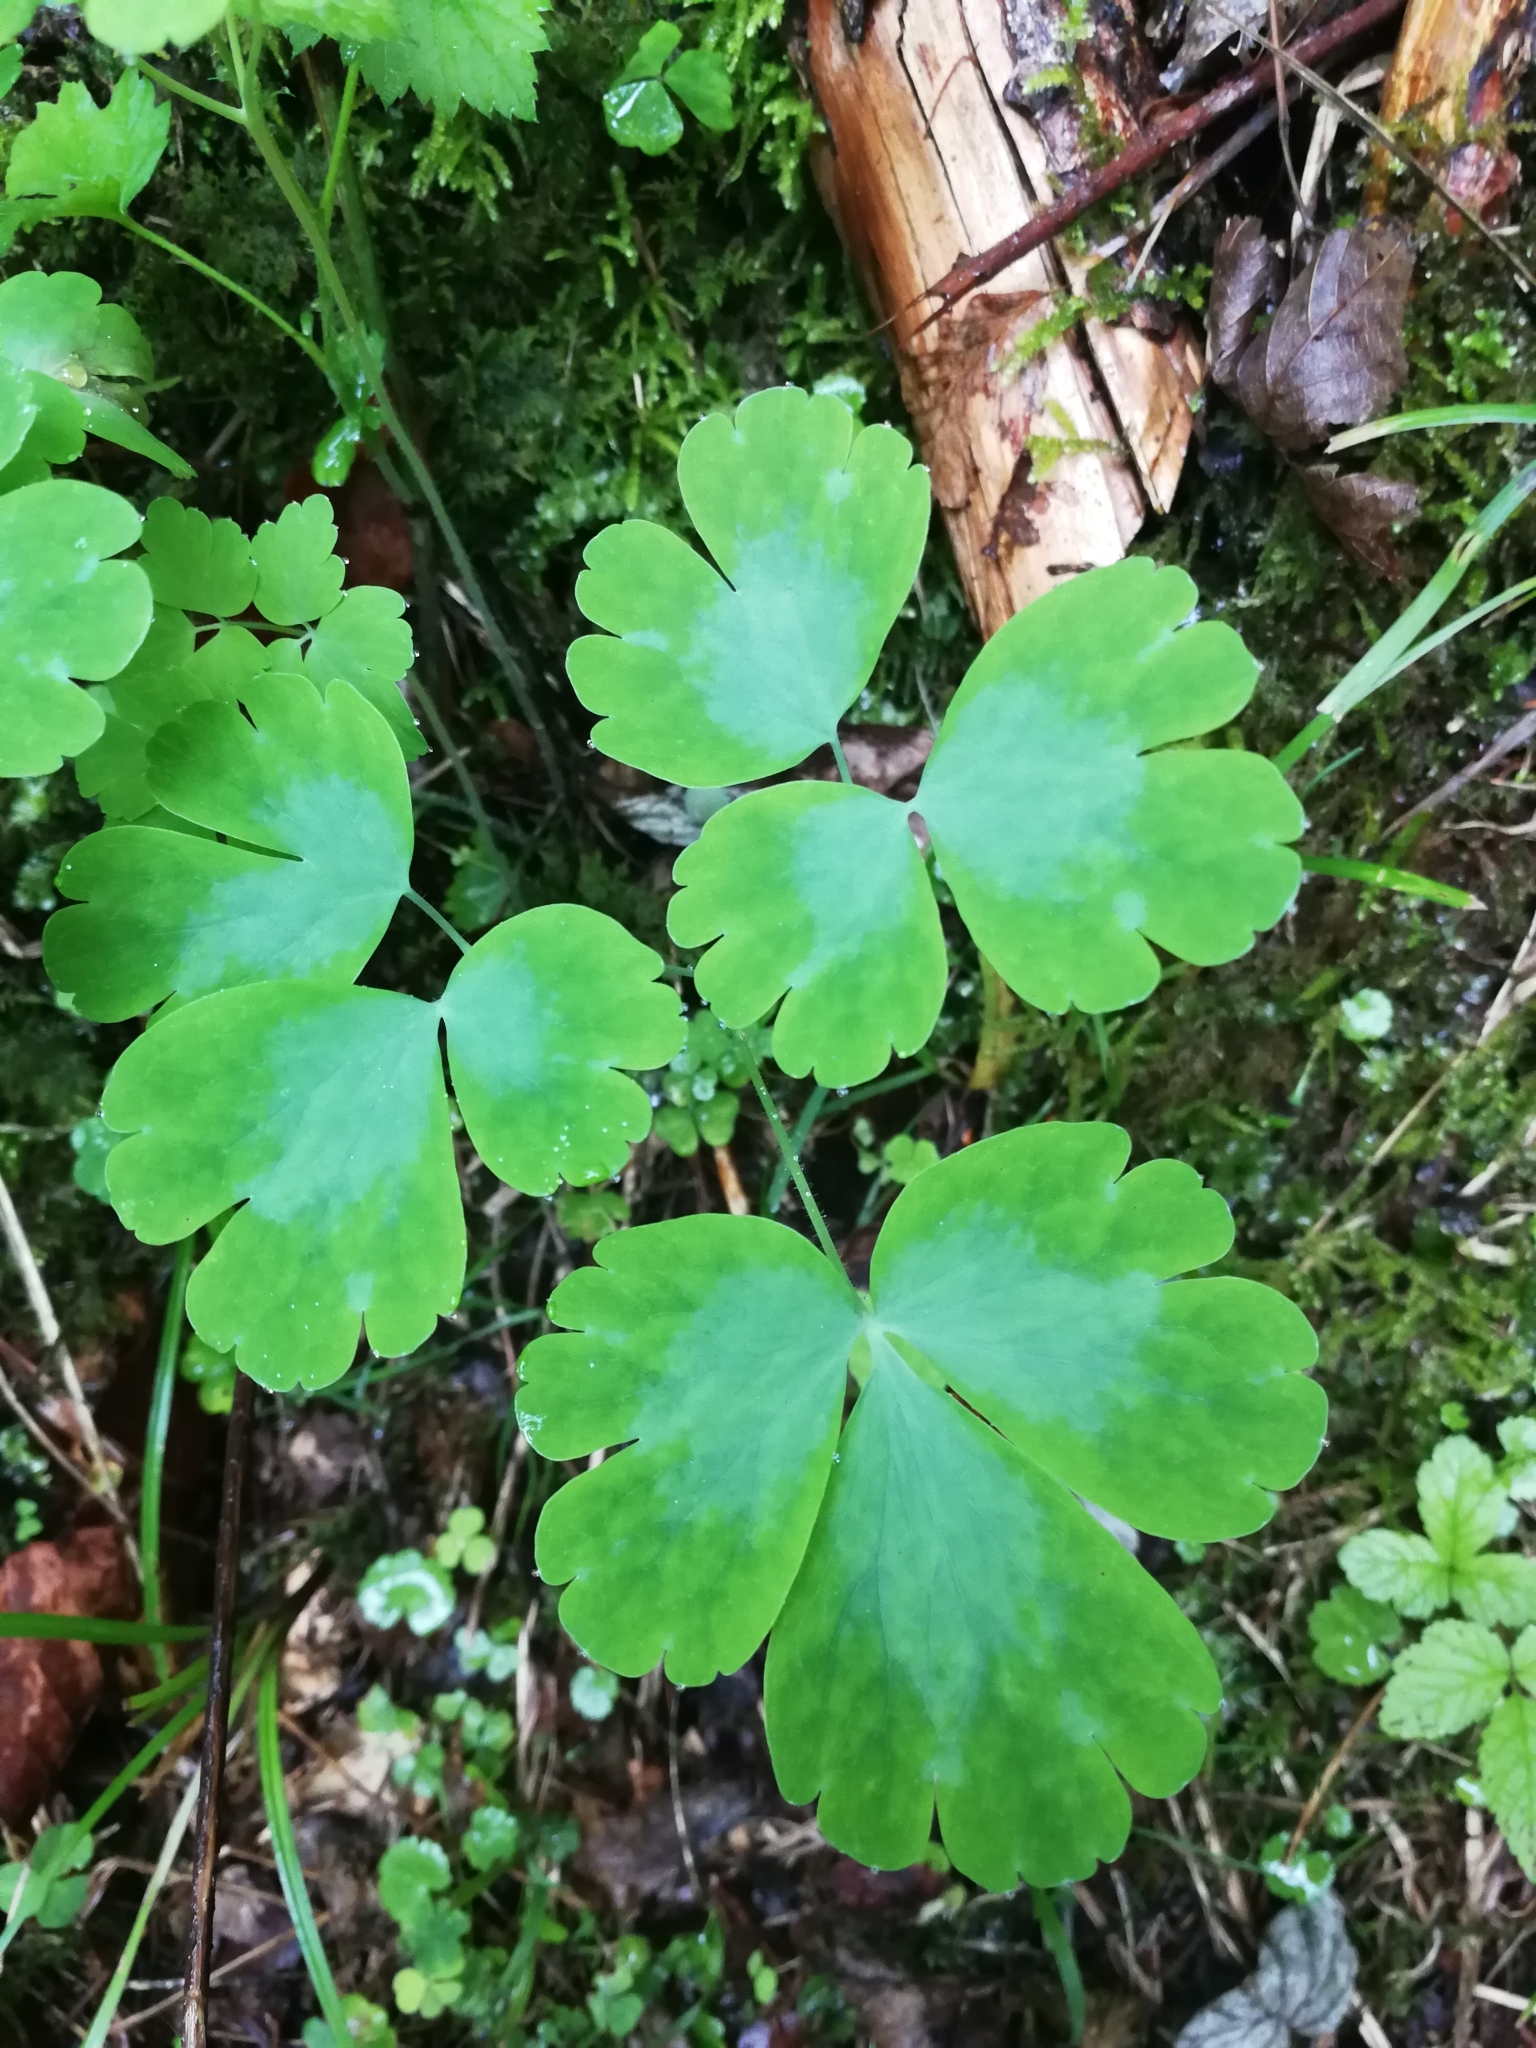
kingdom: Plantae
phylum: Tracheophyta
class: Magnoliopsida
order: Ranunculales
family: Ranunculaceae
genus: Aquilegia
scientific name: Aquilegia vulgaris
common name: Columbine
